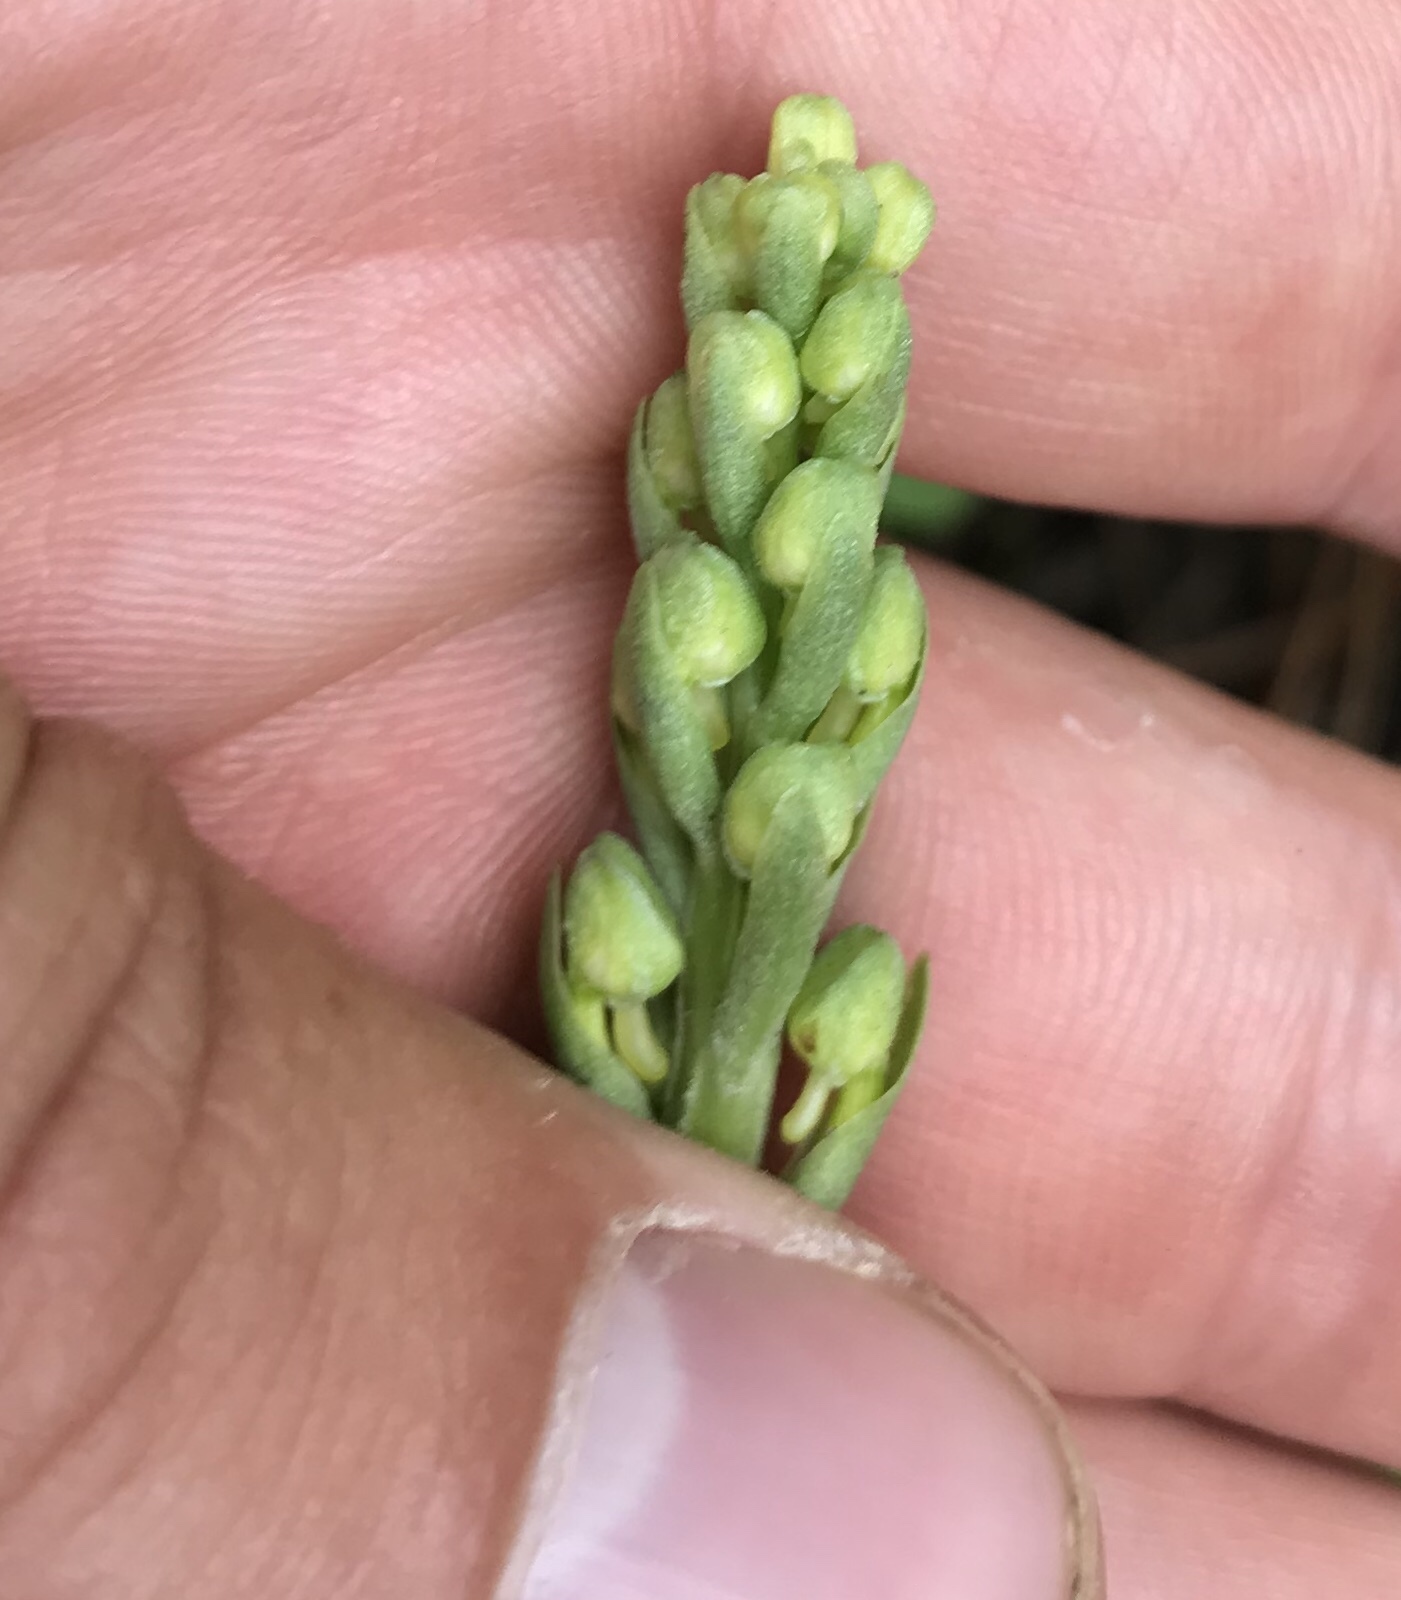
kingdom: Plantae
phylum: Tracheophyta
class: Liliopsida
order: Asparagales
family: Orchidaceae
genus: Platanthera
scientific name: Platanthera orbiculata
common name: Large round-leaved orchid
